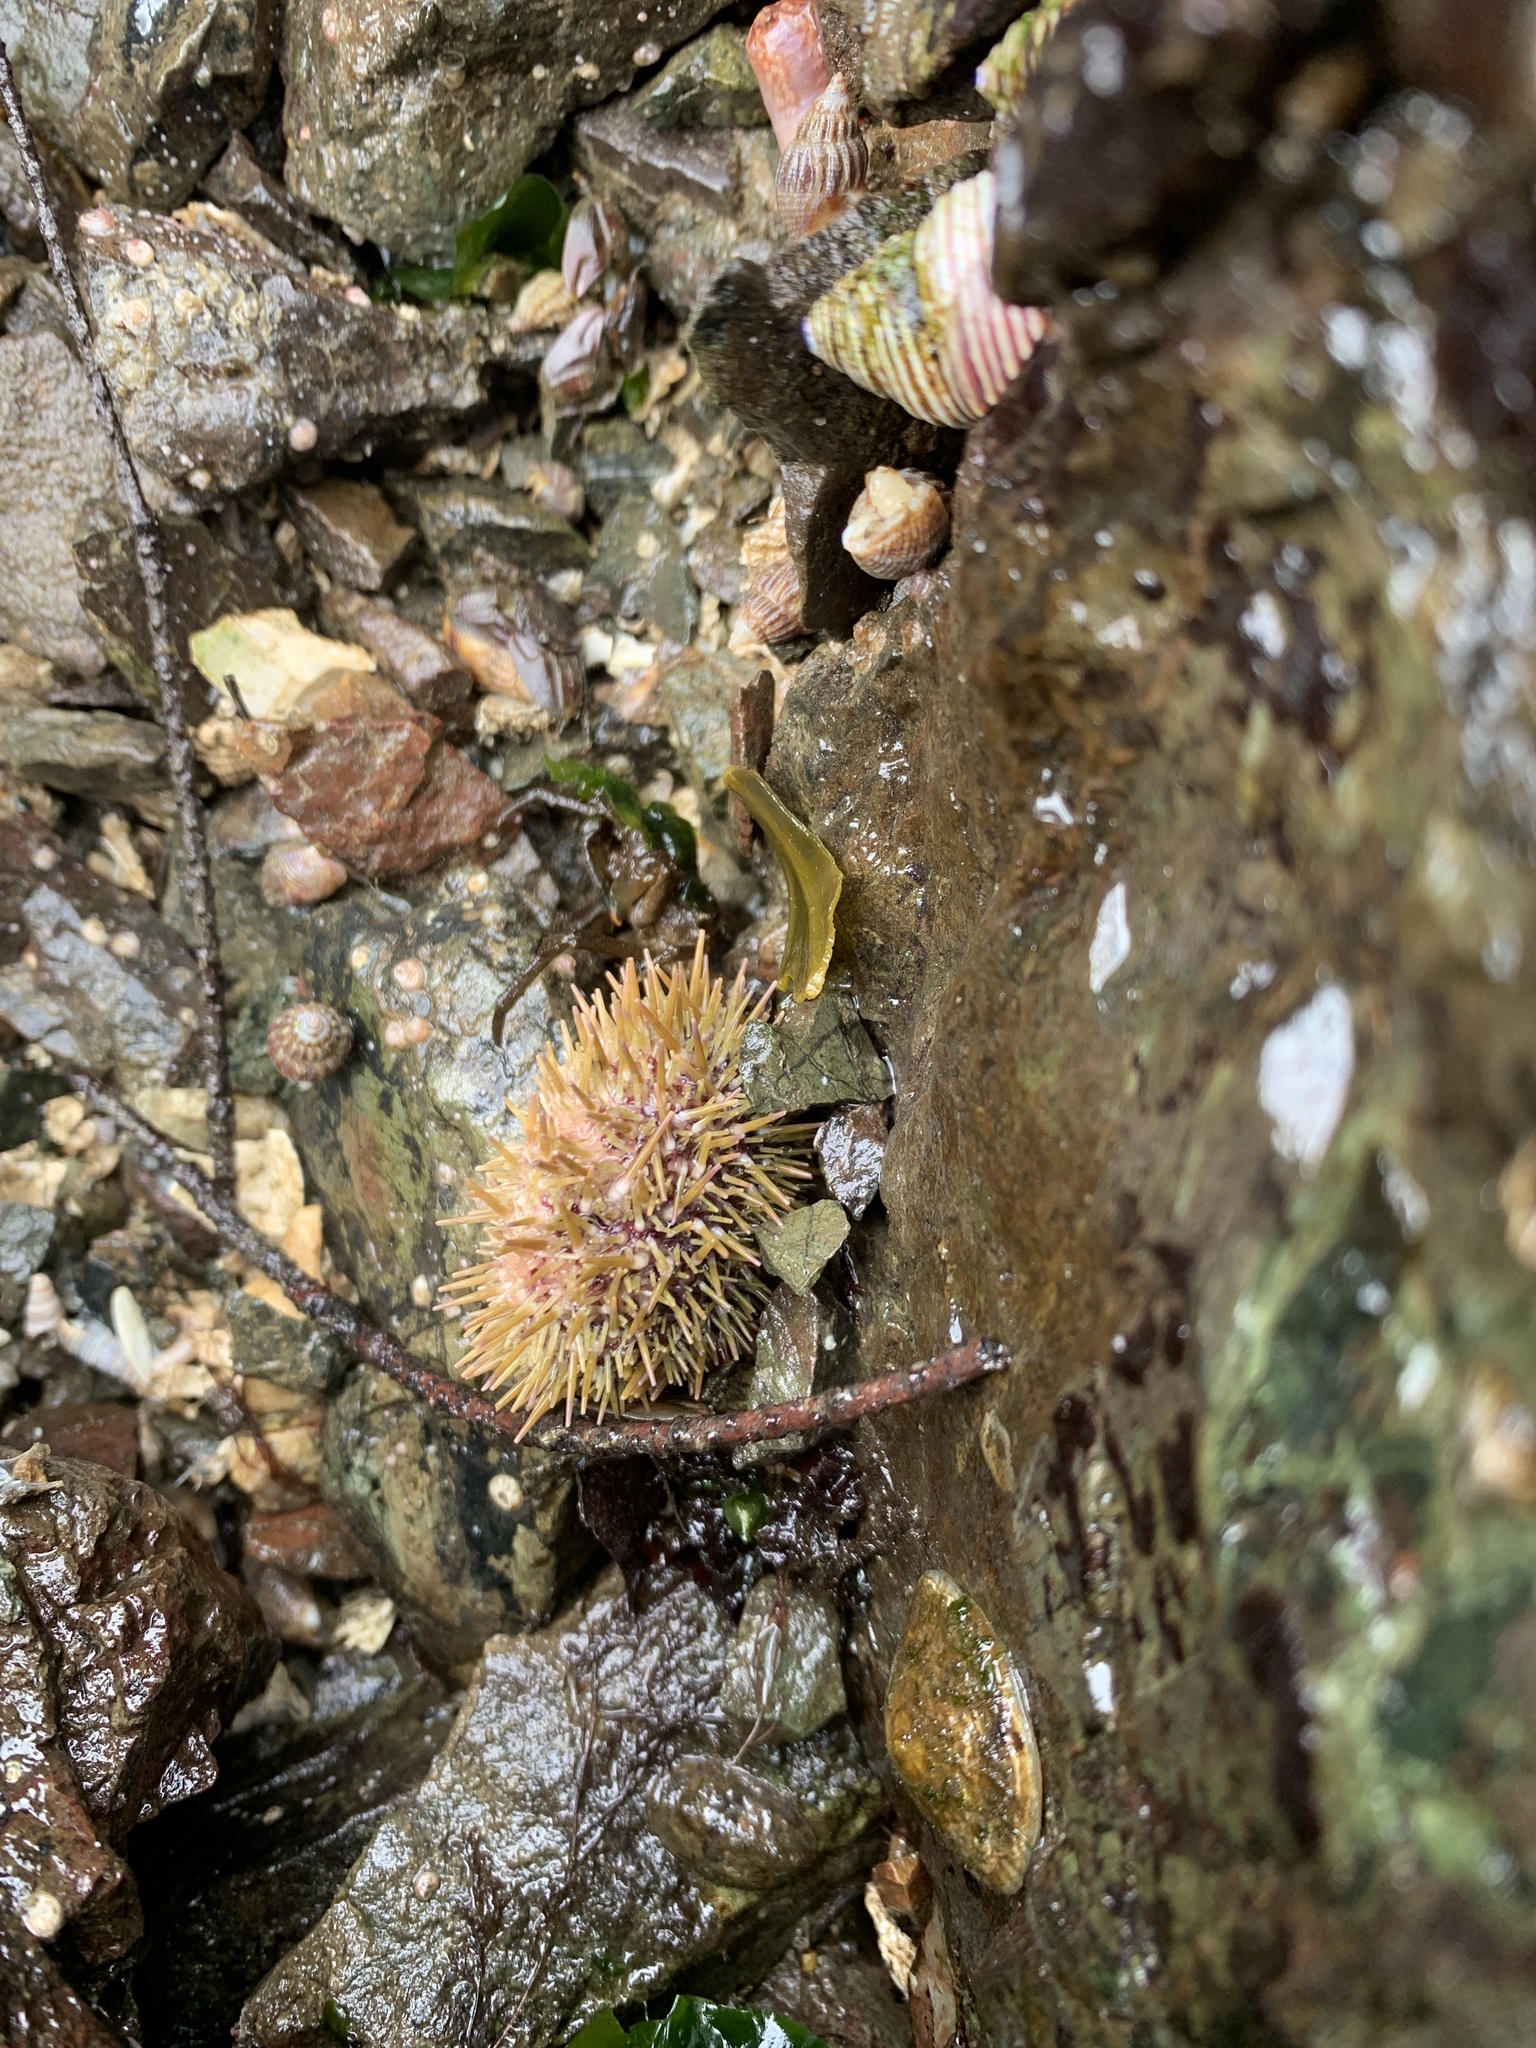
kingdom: Animalia
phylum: Echinodermata
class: Echinoidea
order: Camarodonta
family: Strongylocentrotidae
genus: Strongylocentrotus
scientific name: Strongylocentrotus droebachiensis
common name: Northern sea urchin
